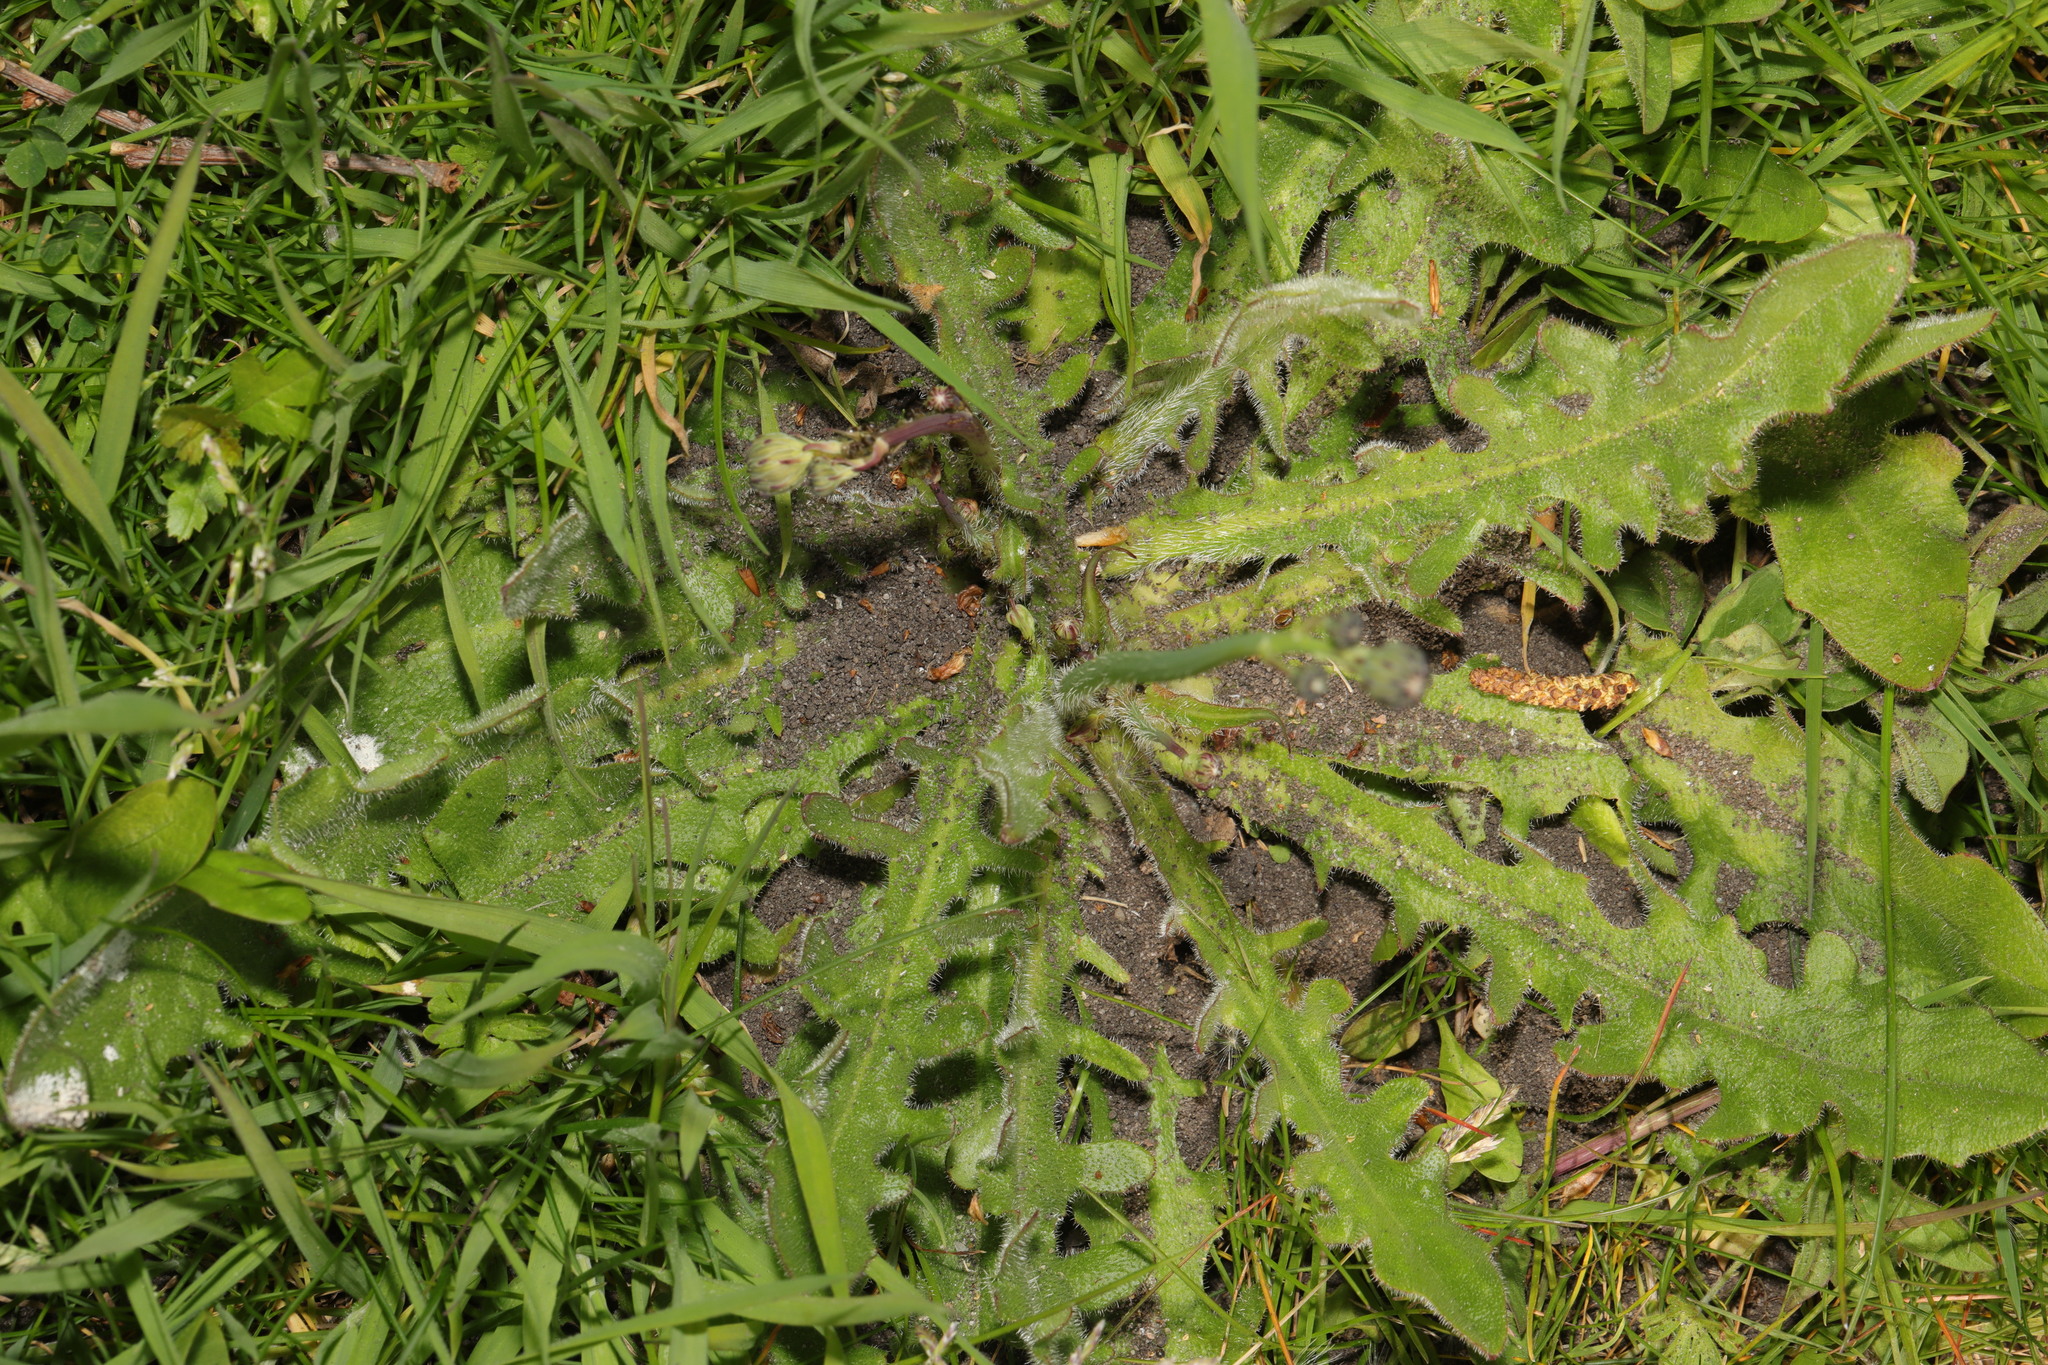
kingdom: Plantae
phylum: Tracheophyta
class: Magnoliopsida
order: Asterales
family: Asteraceae
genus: Hypochaeris
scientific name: Hypochaeris radicata
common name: Flatweed
